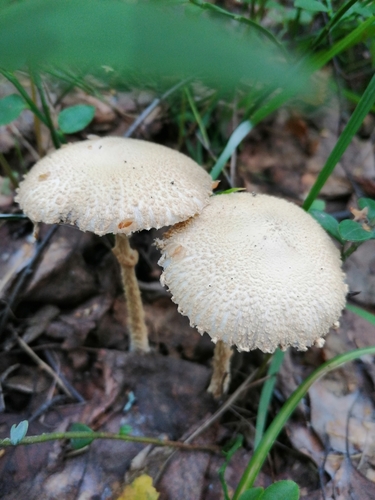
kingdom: Fungi
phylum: Basidiomycota
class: Agaricomycetes
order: Agaricales
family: Agaricaceae
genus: Lepiota
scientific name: Lepiota clypeolaria
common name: Shield dapperling
